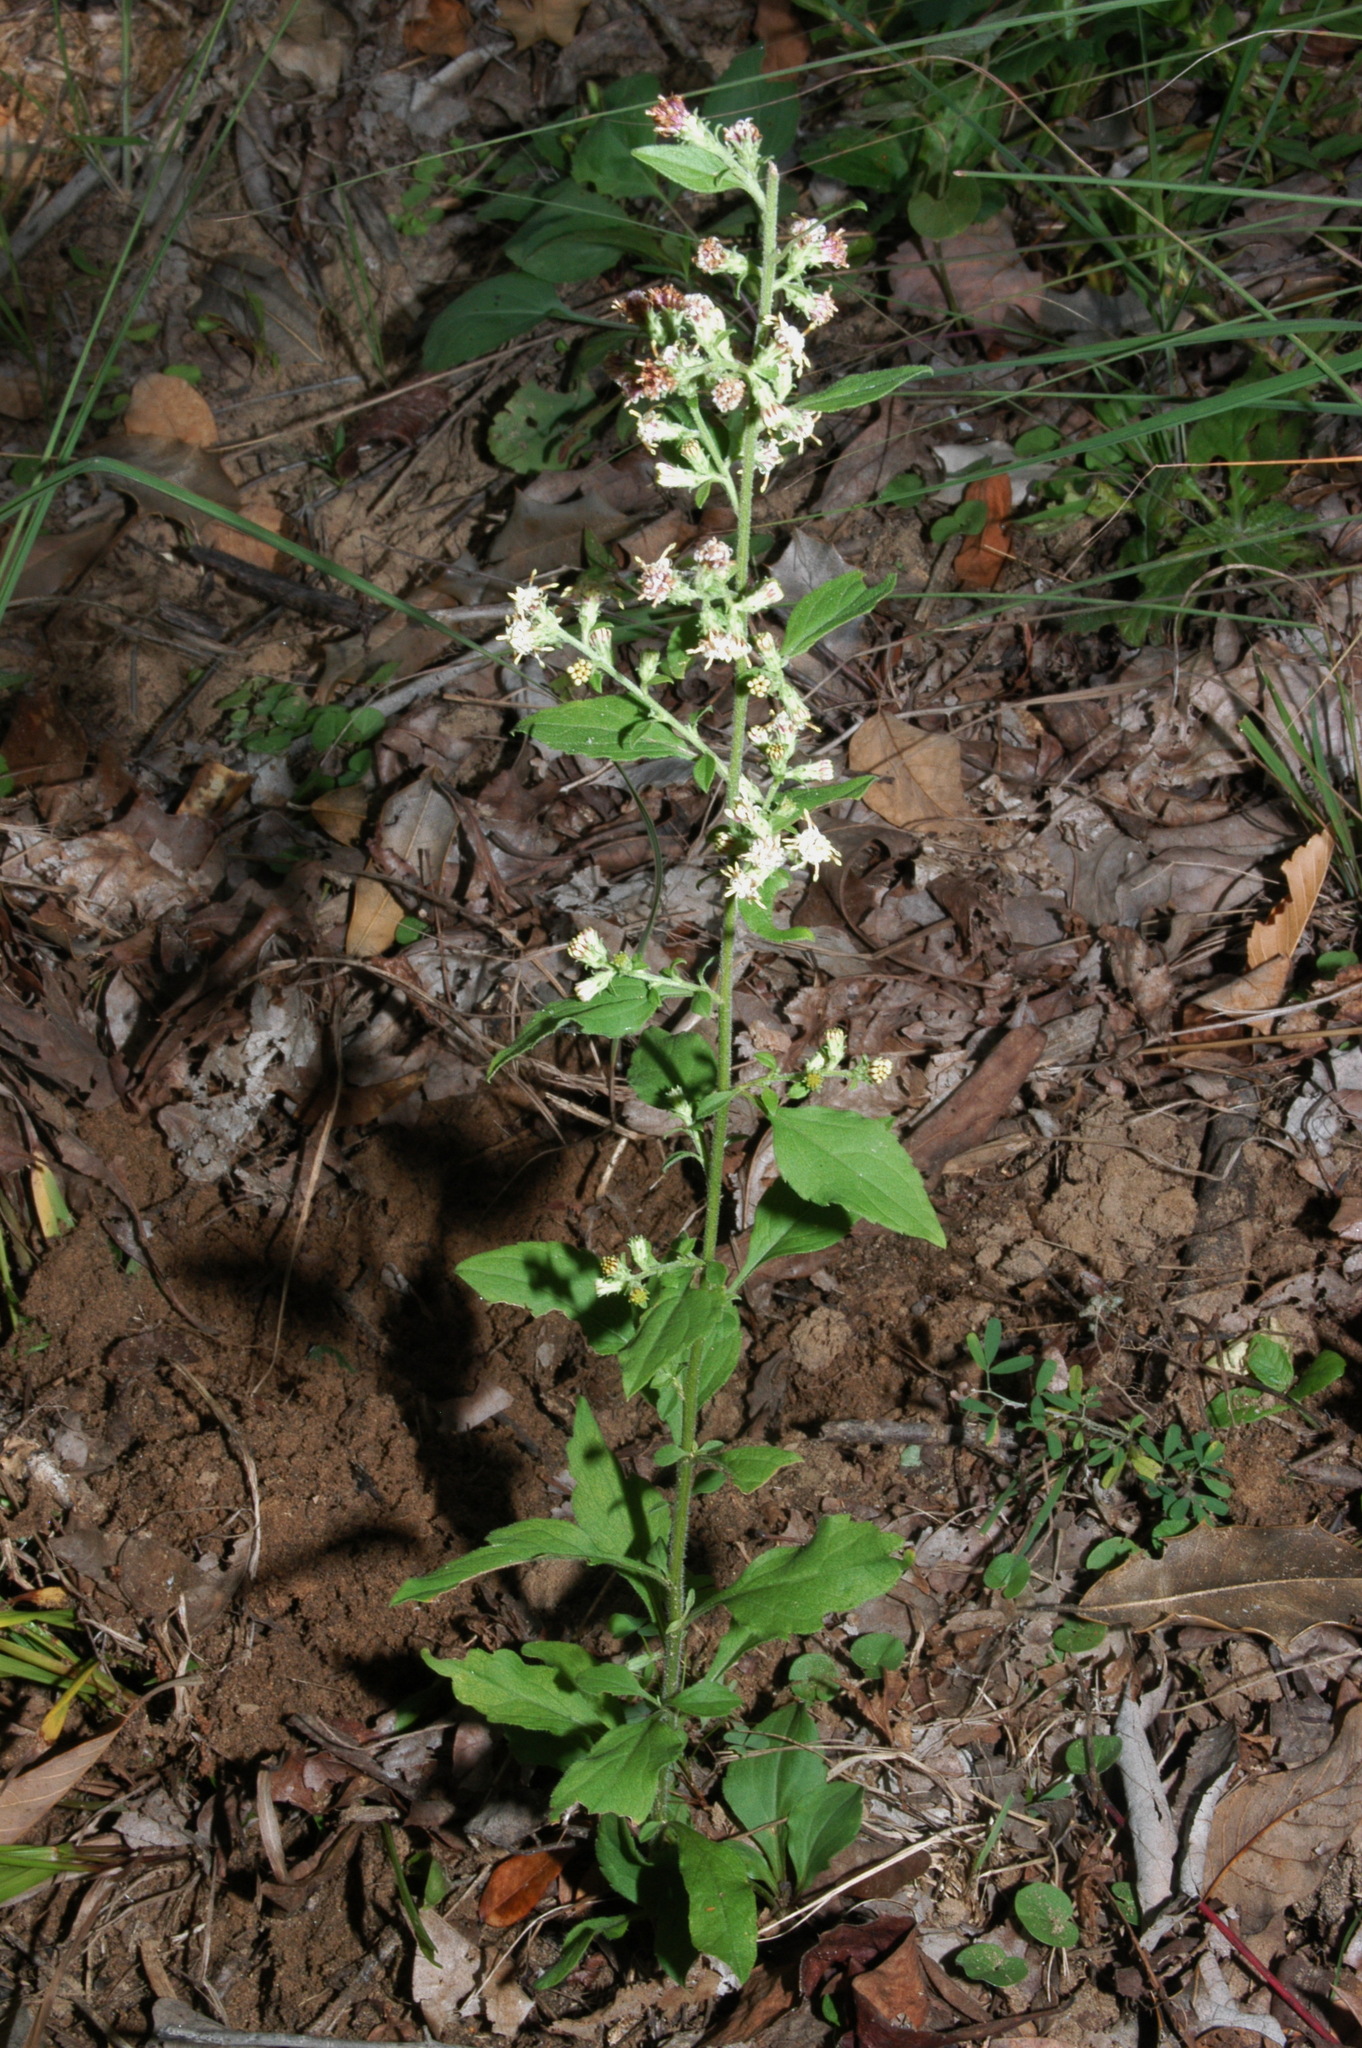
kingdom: Plantae
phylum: Tracheophyta
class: Magnoliopsida
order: Asterales
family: Asteraceae
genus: Solidago
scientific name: Solidago discoidea
